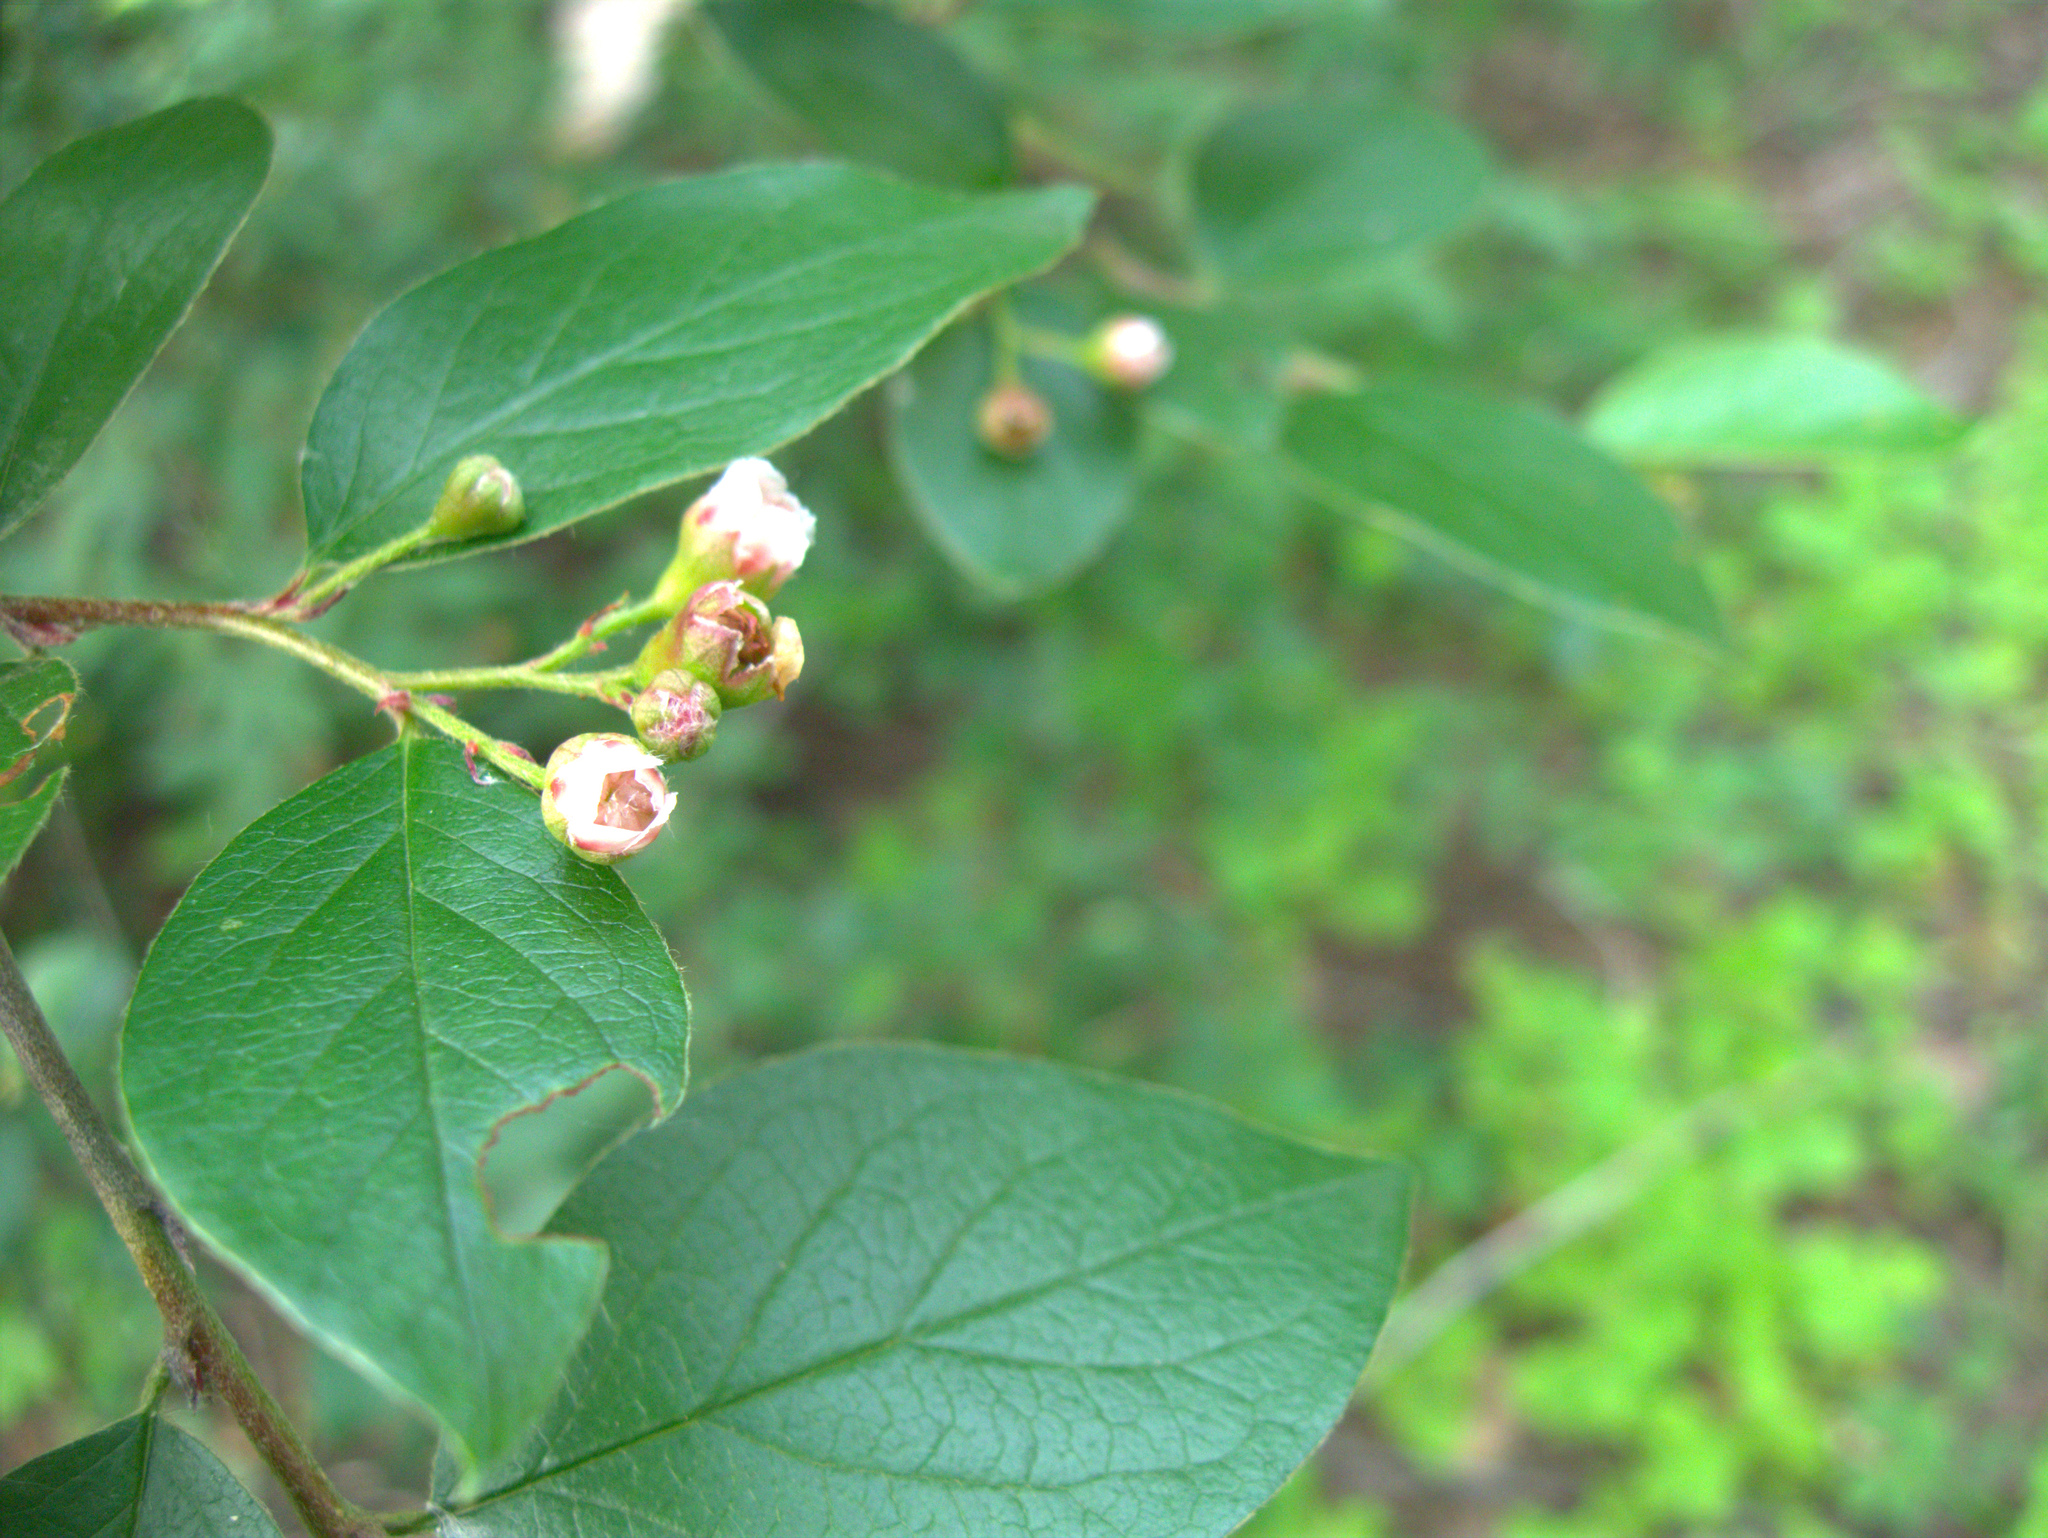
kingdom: Plantae
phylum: Tracheophyta
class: Magnoliopsida
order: Rosales
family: Rosaceae
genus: Cotoneaster
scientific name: Cotoneaster acutifolius
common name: Peking cotoneaster
